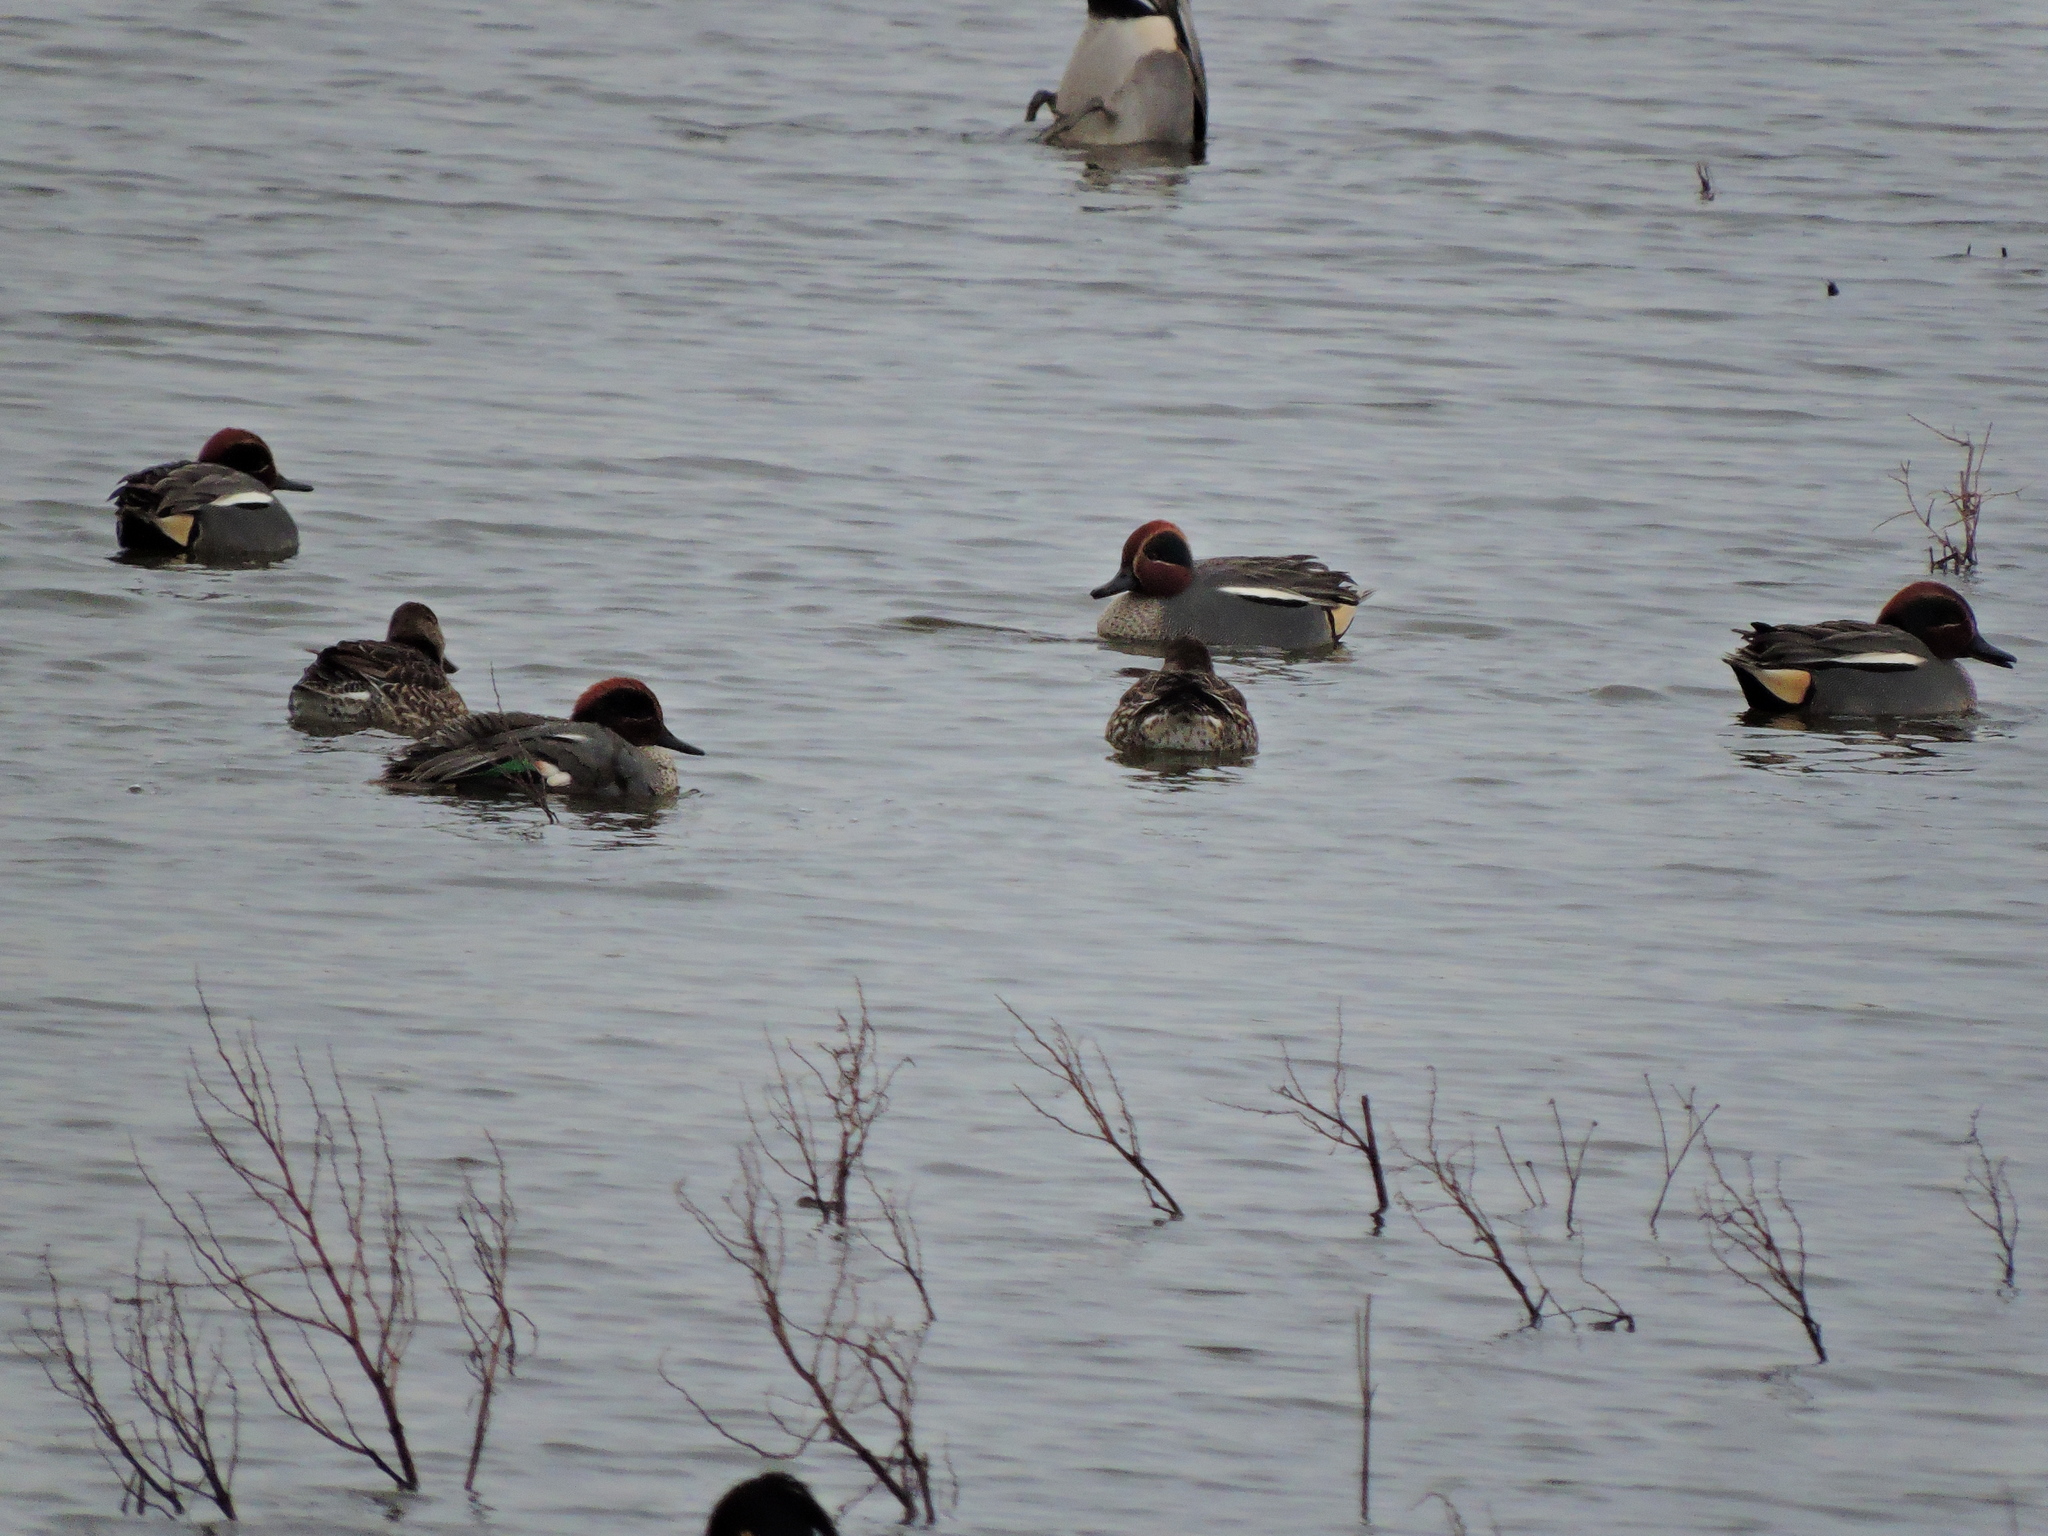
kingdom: Animalia
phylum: Chordata
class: Aves
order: Anseriformes
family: Anatidae
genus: Anas
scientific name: Anas crecca
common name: Eurasian teal
